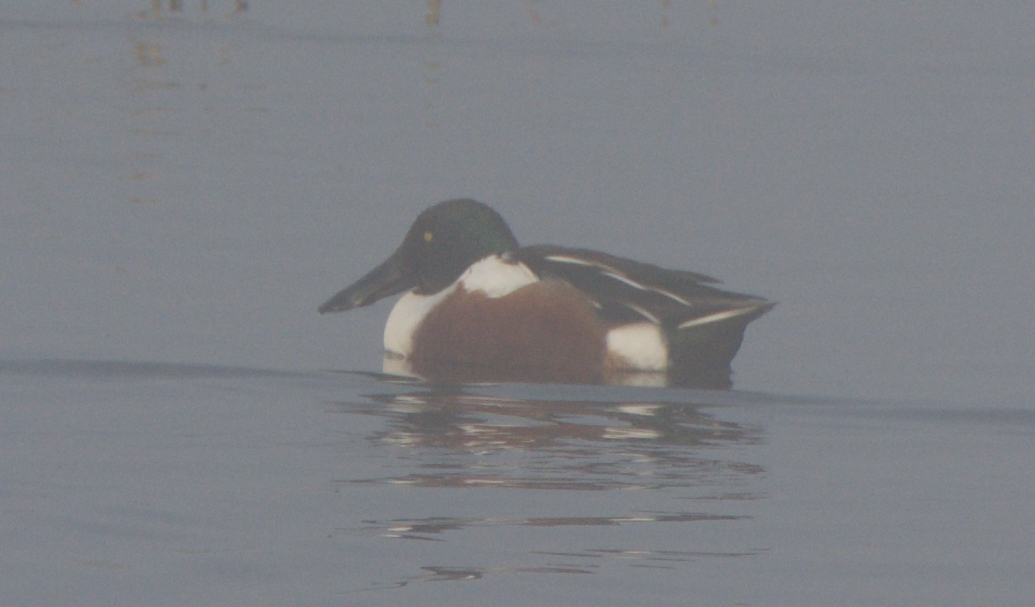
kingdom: Animalia
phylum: Chordata
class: Aves
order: Anseriformes
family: Anatidae
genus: Spatula
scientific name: Spatula clypeata
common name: Northern shoveler
